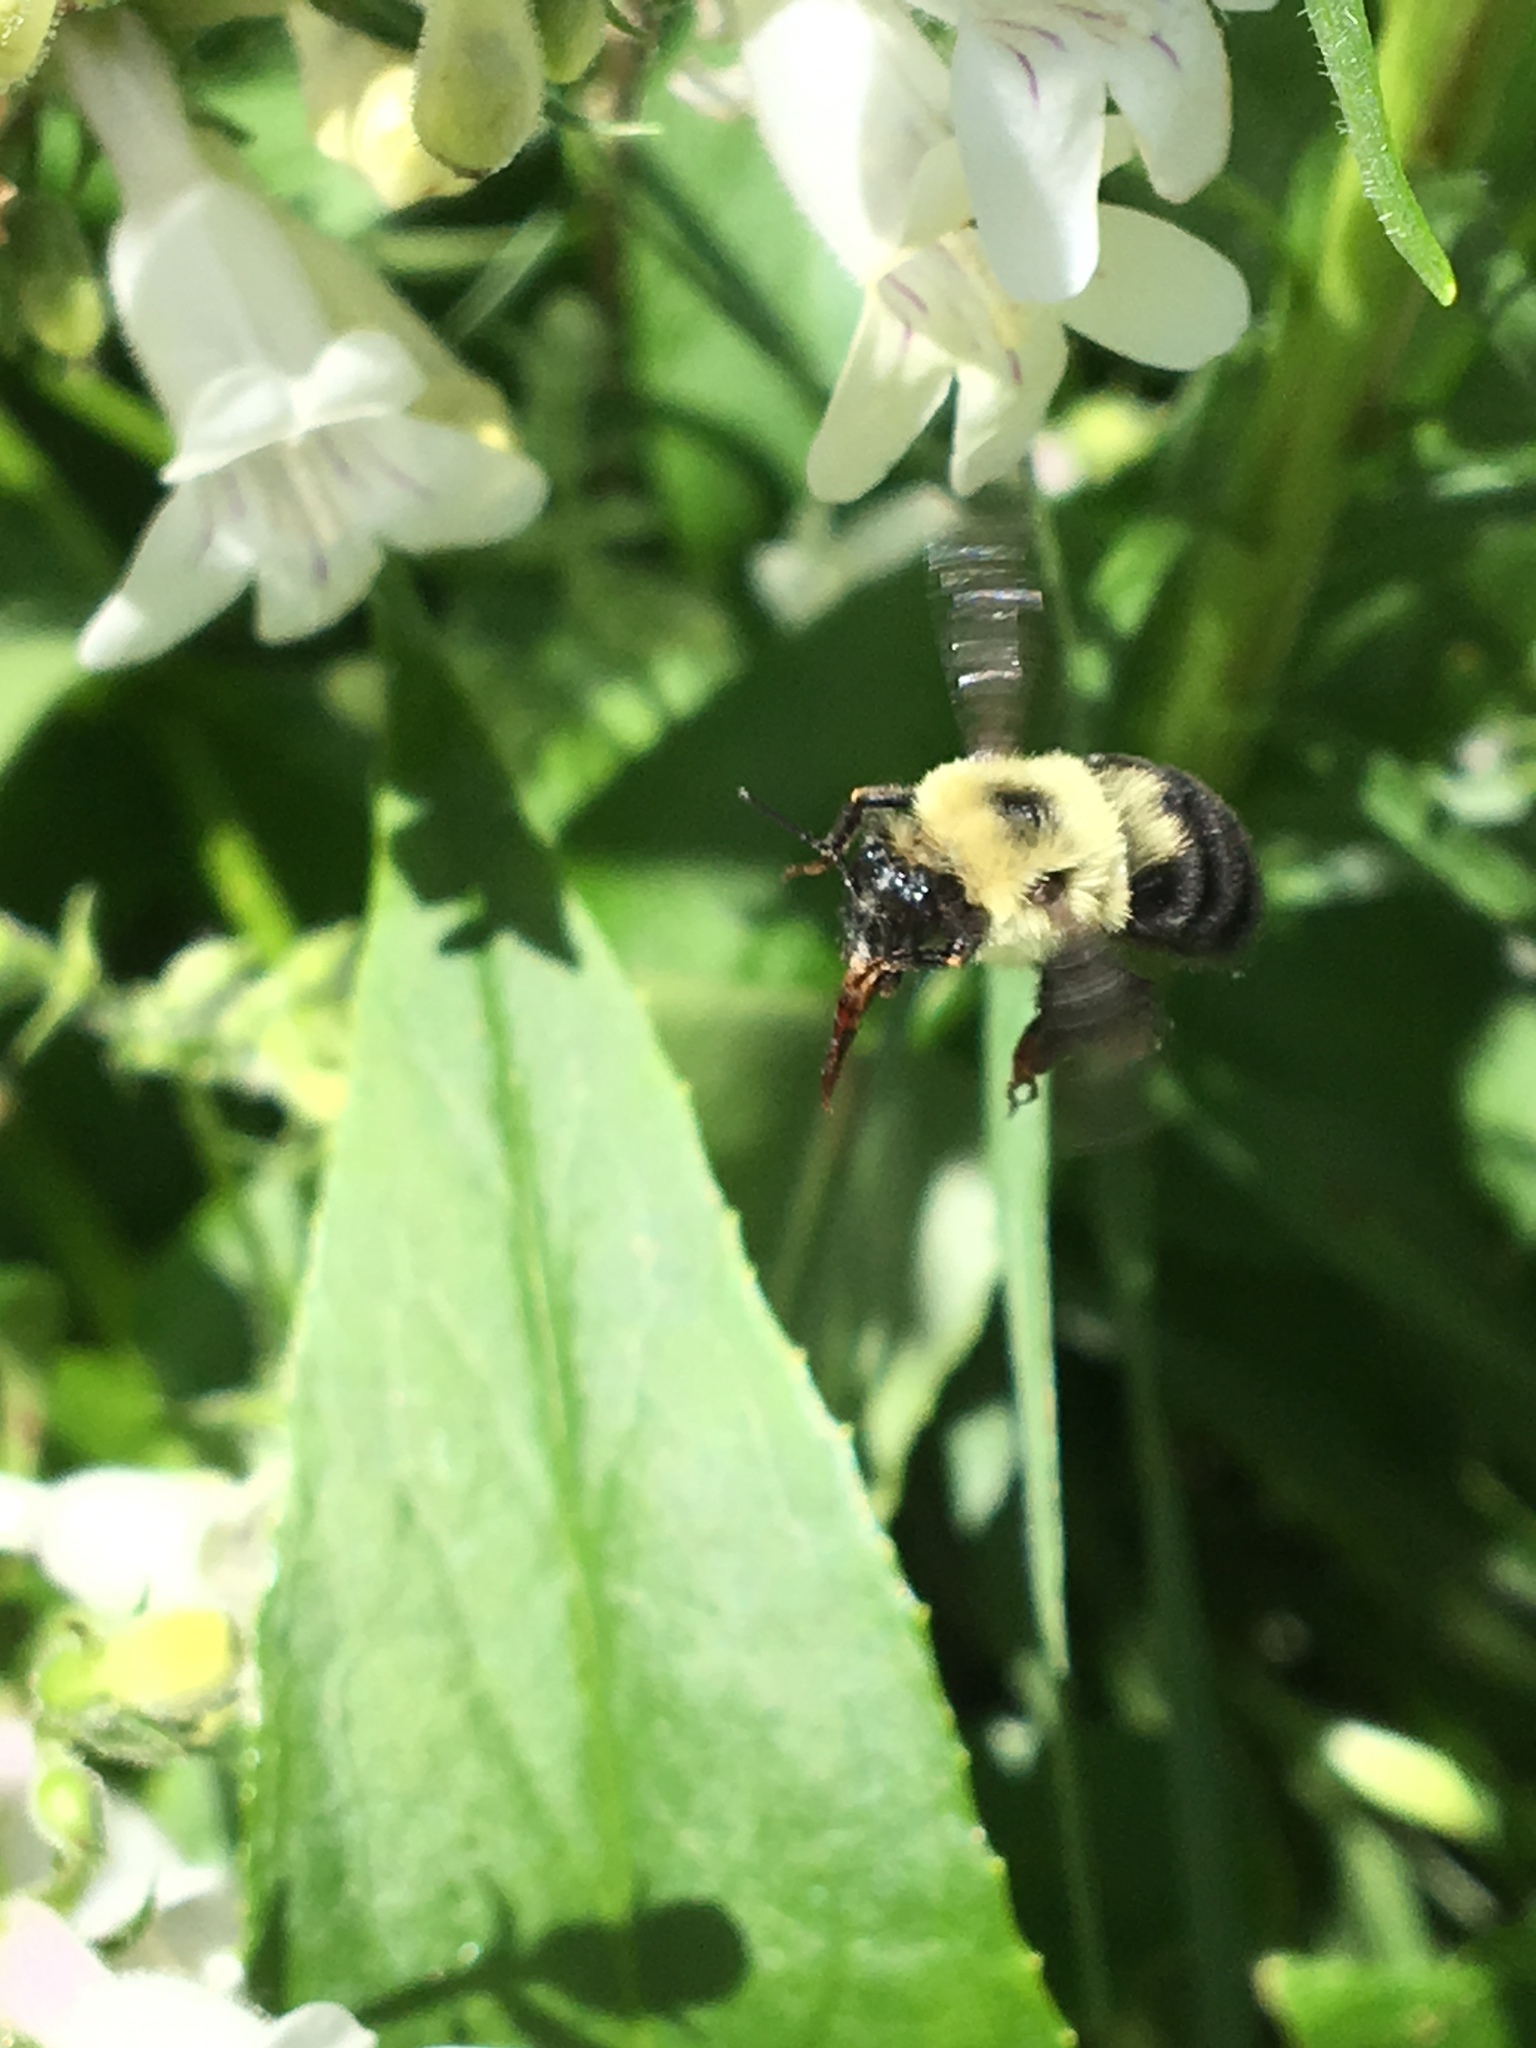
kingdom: Animalia
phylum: Arthropoda
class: Insecta
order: Hymenoptera
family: Apidae
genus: Bombus
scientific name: Bombus bimaculatus
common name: Two-spotted bumble bee
